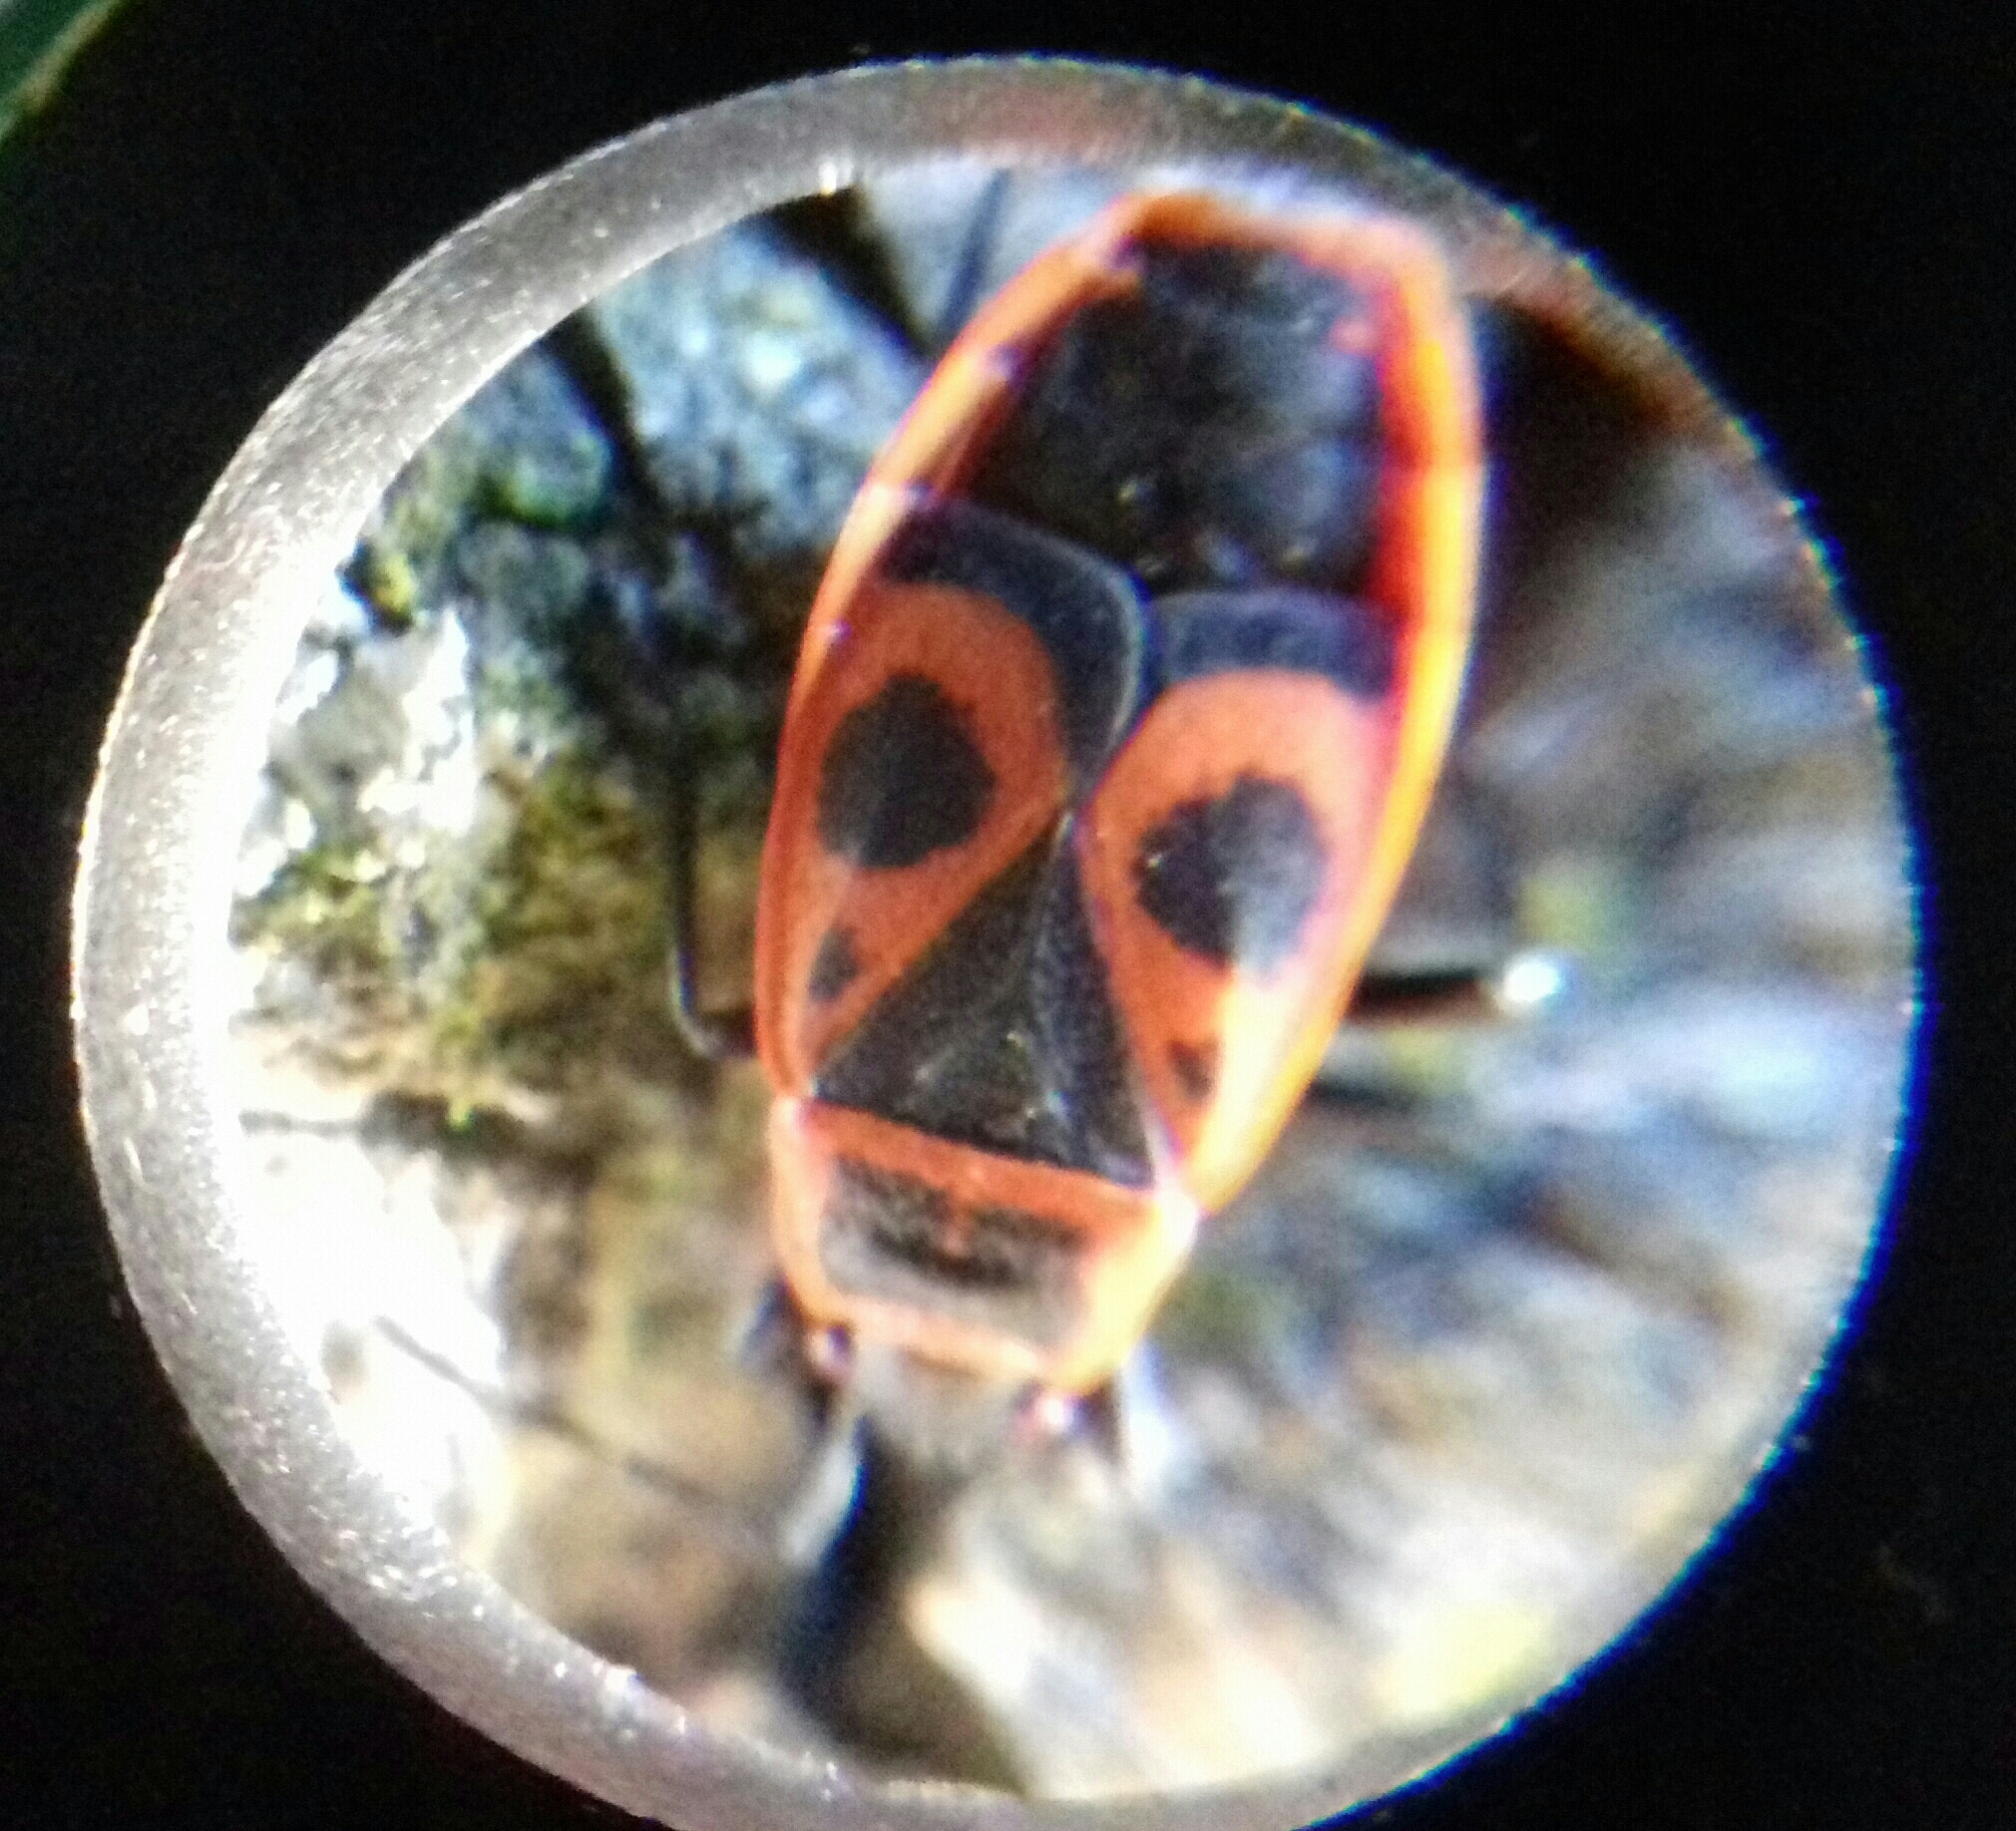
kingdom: Animalia
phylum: Arthropoda
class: Insecta
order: Hemiptera
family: Pyrrhocoridae
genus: Pyrrhocoris
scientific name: Pyrrhocoris apterus
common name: Firebug
